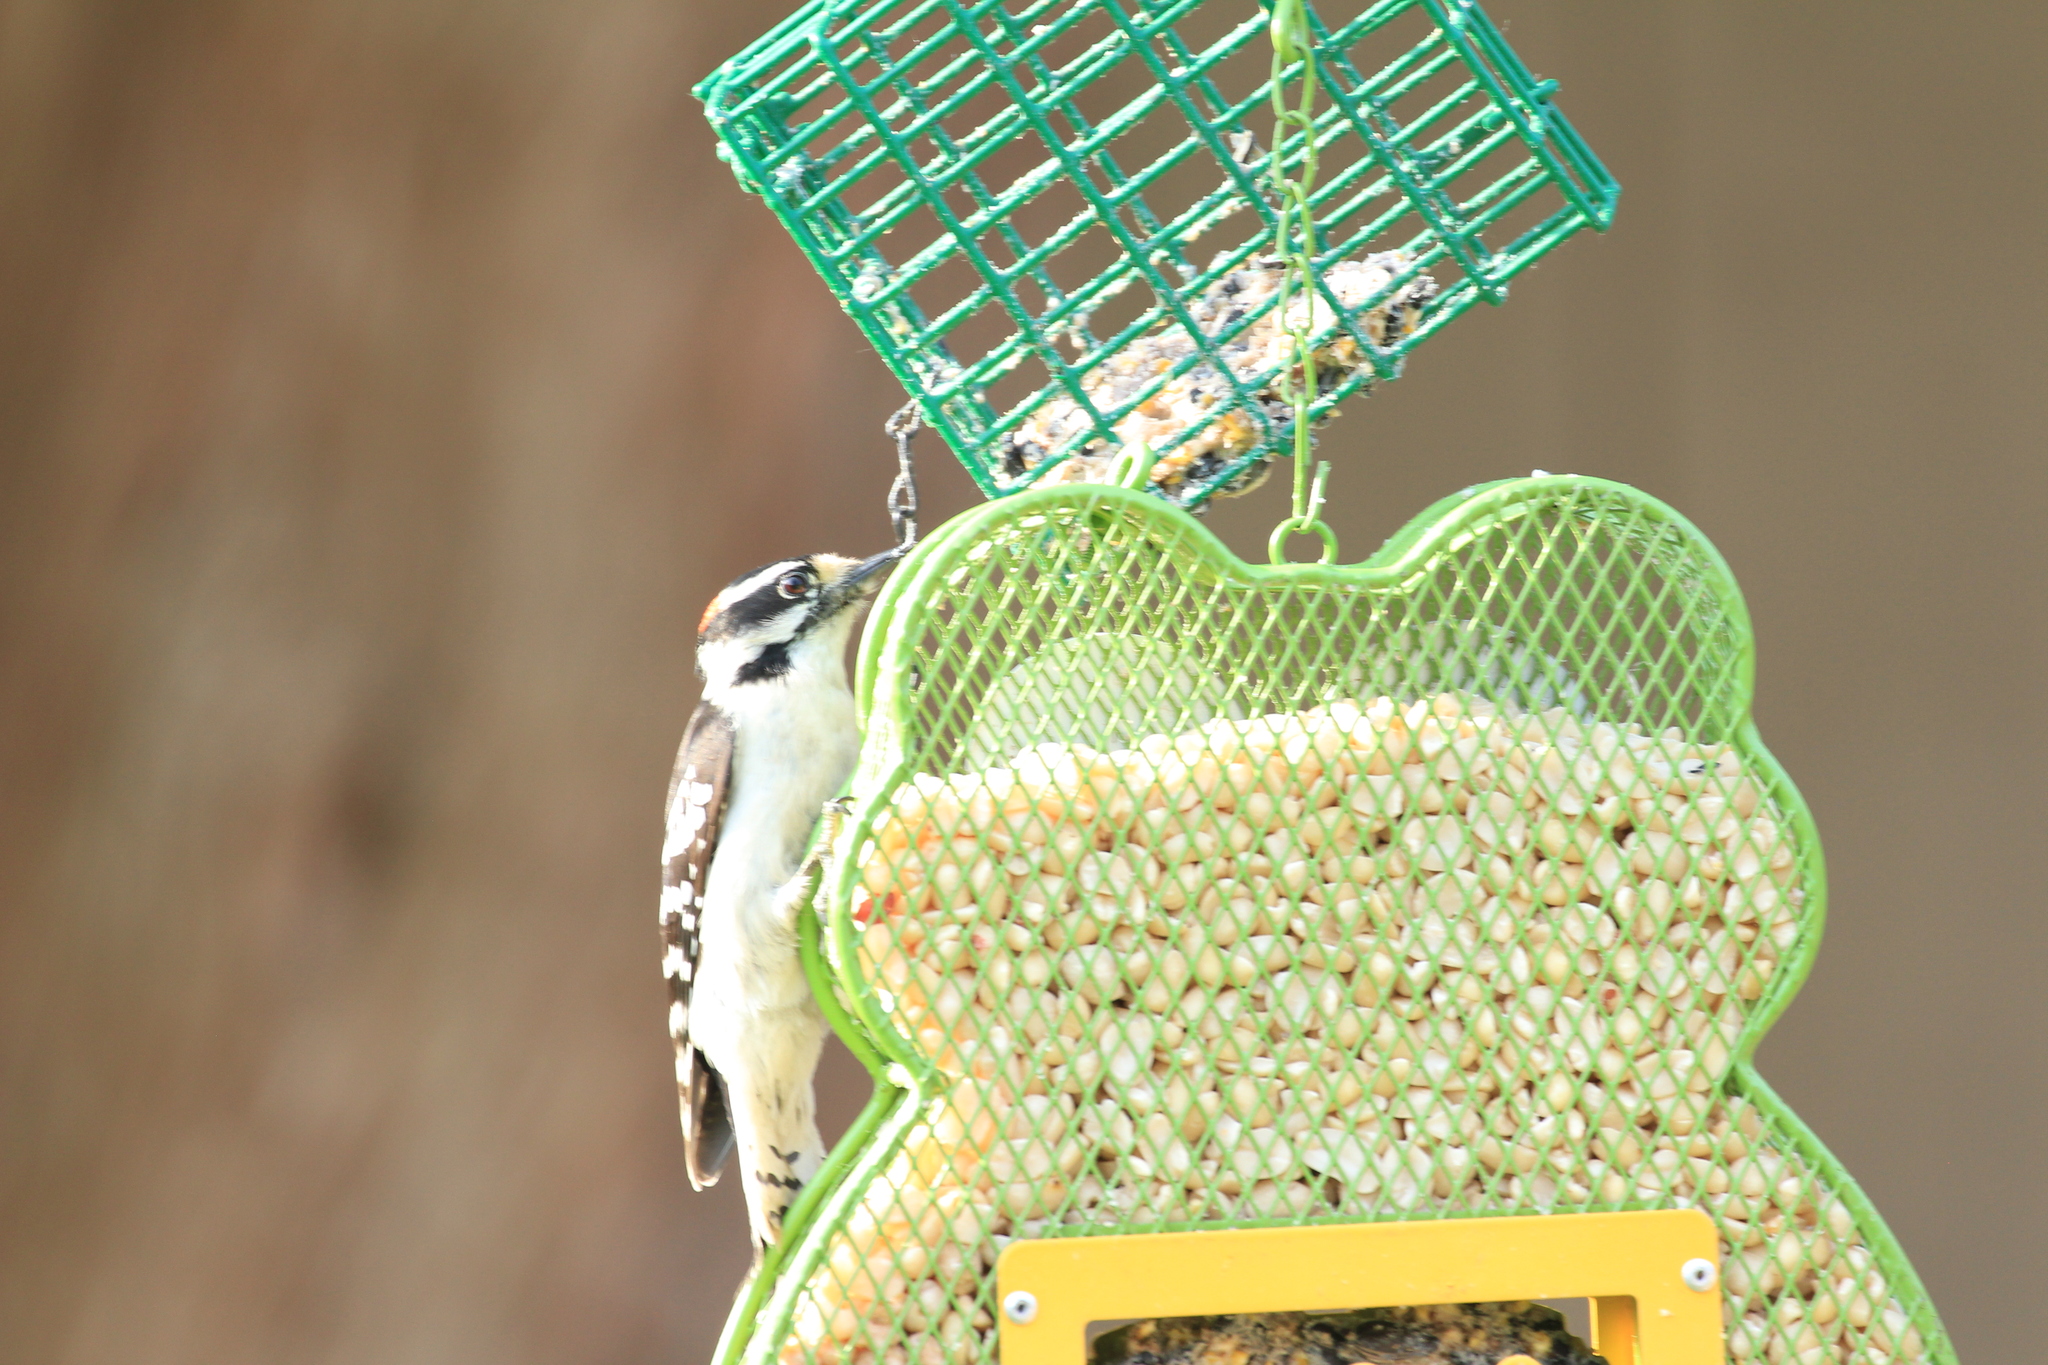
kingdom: Animalia
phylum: Chordata
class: Aves
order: Piciformes
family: Picidae
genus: Dryobates
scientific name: Dryobates pubescens
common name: Downy woodpecker
